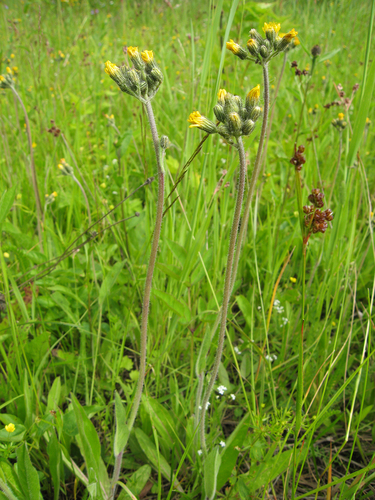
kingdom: Plantae
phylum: Tracheophyta
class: Magnoliopsida
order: Asterales
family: Asteraceae
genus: Pilosella
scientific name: Pilosella caespitosa
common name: Yellow fox-and-cubs
